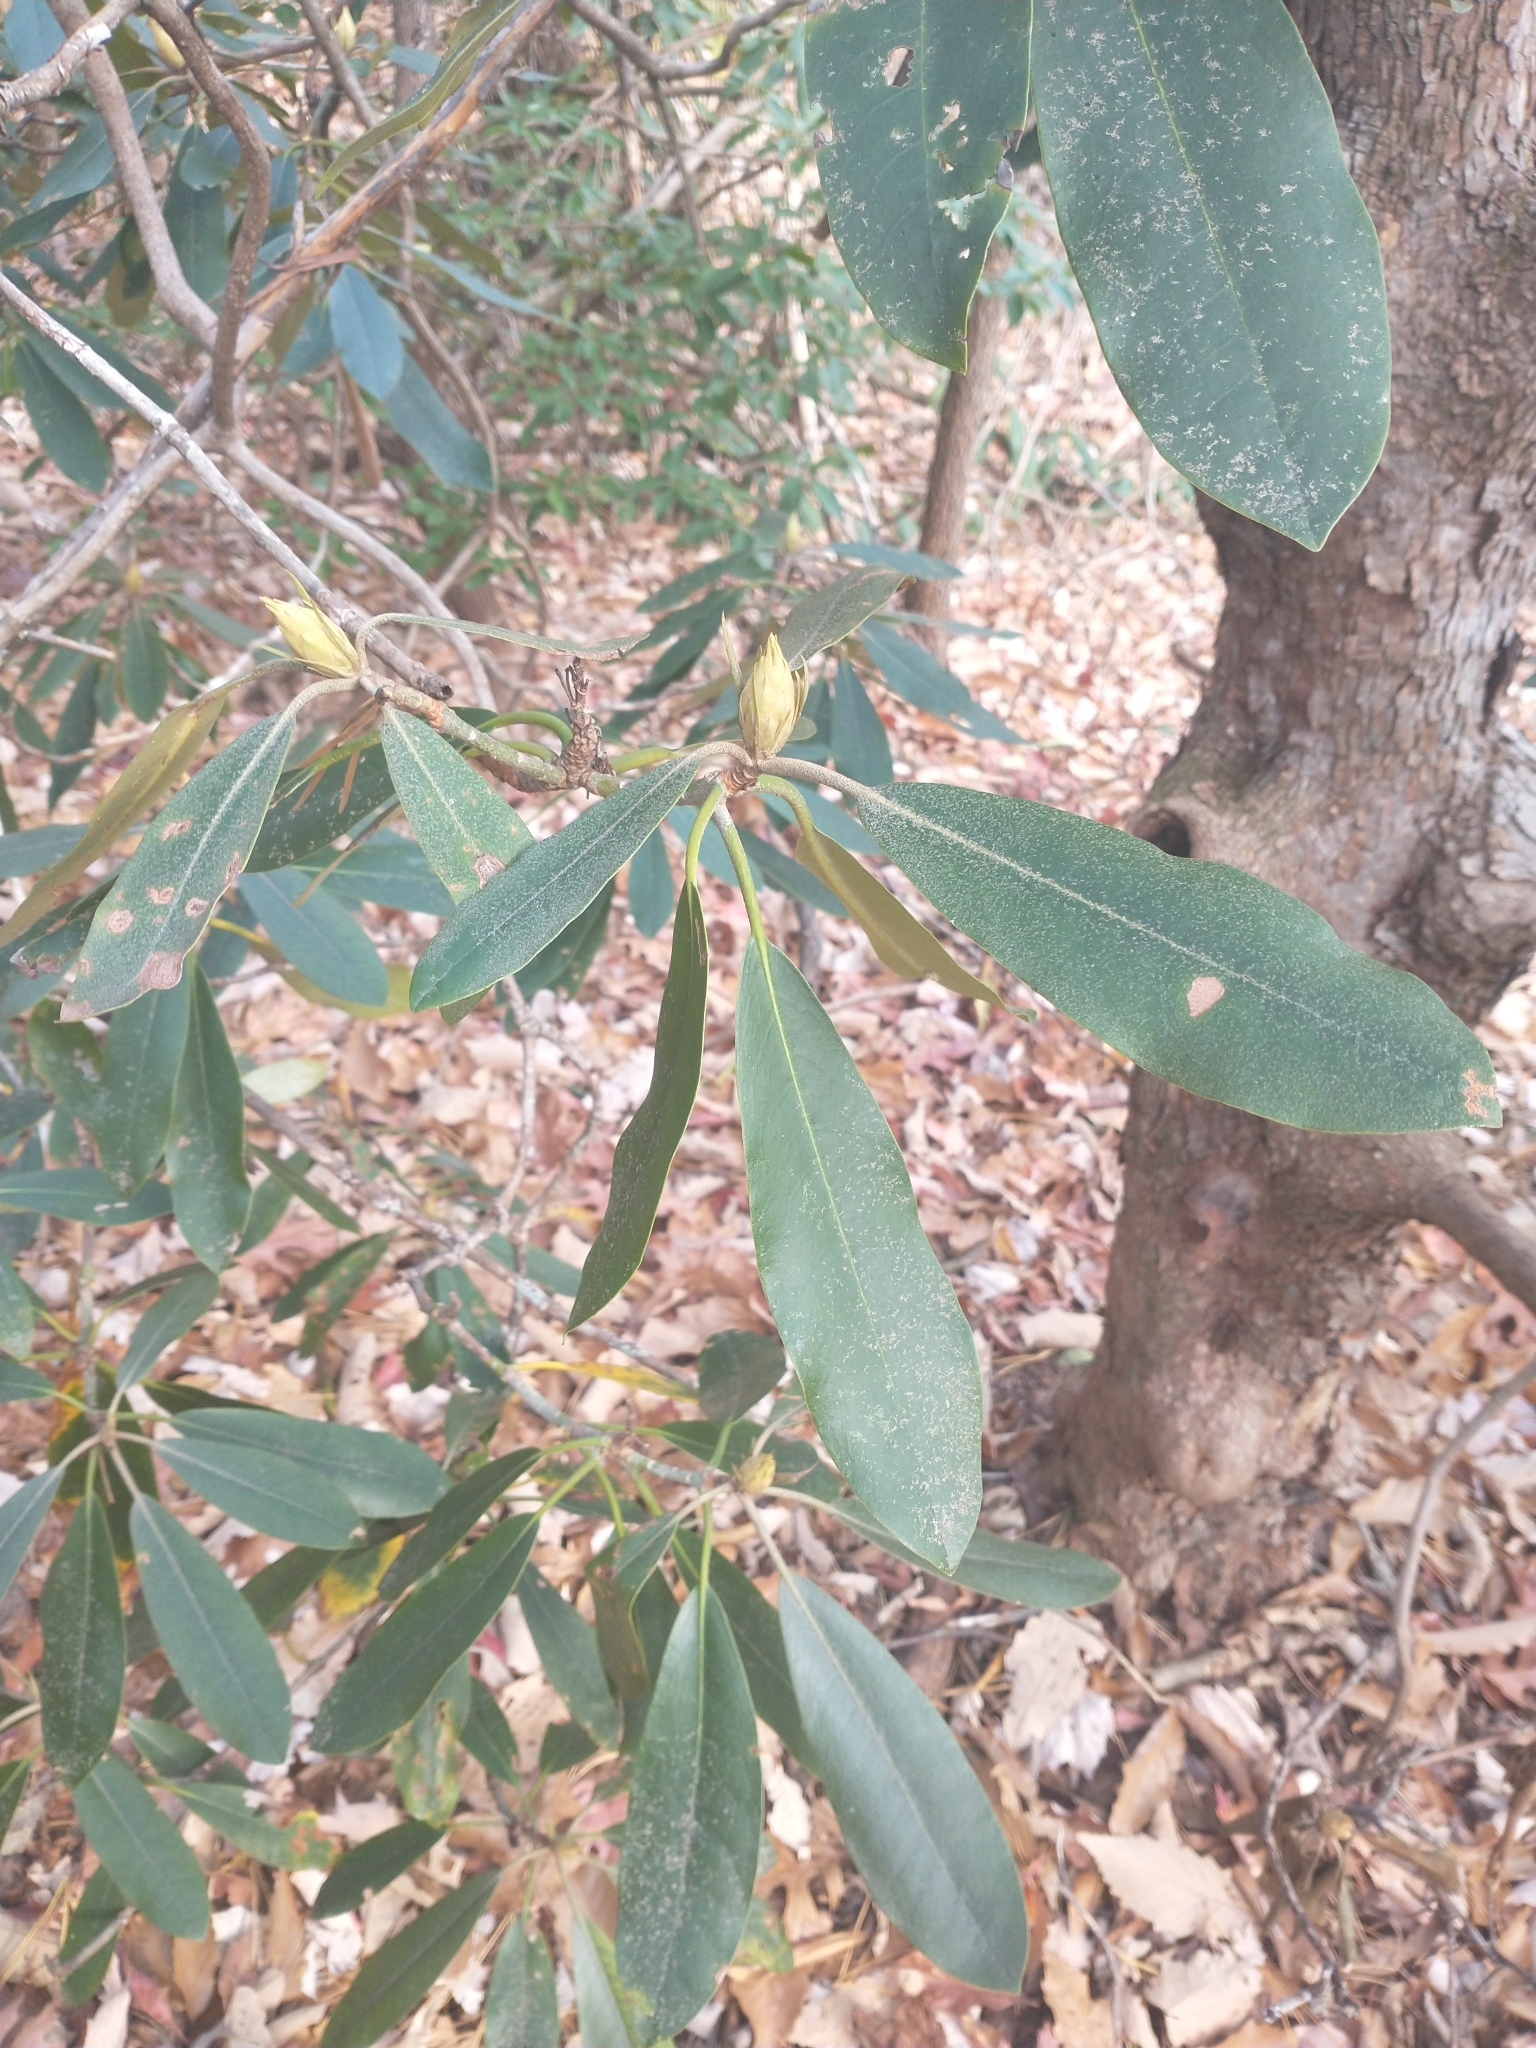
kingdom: Plantae
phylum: Tracheophyta
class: Magnoliopsida
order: Ericales
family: Ericaceae
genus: Rhododendron
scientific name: Rhododendron maximum
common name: Great rhododendron
